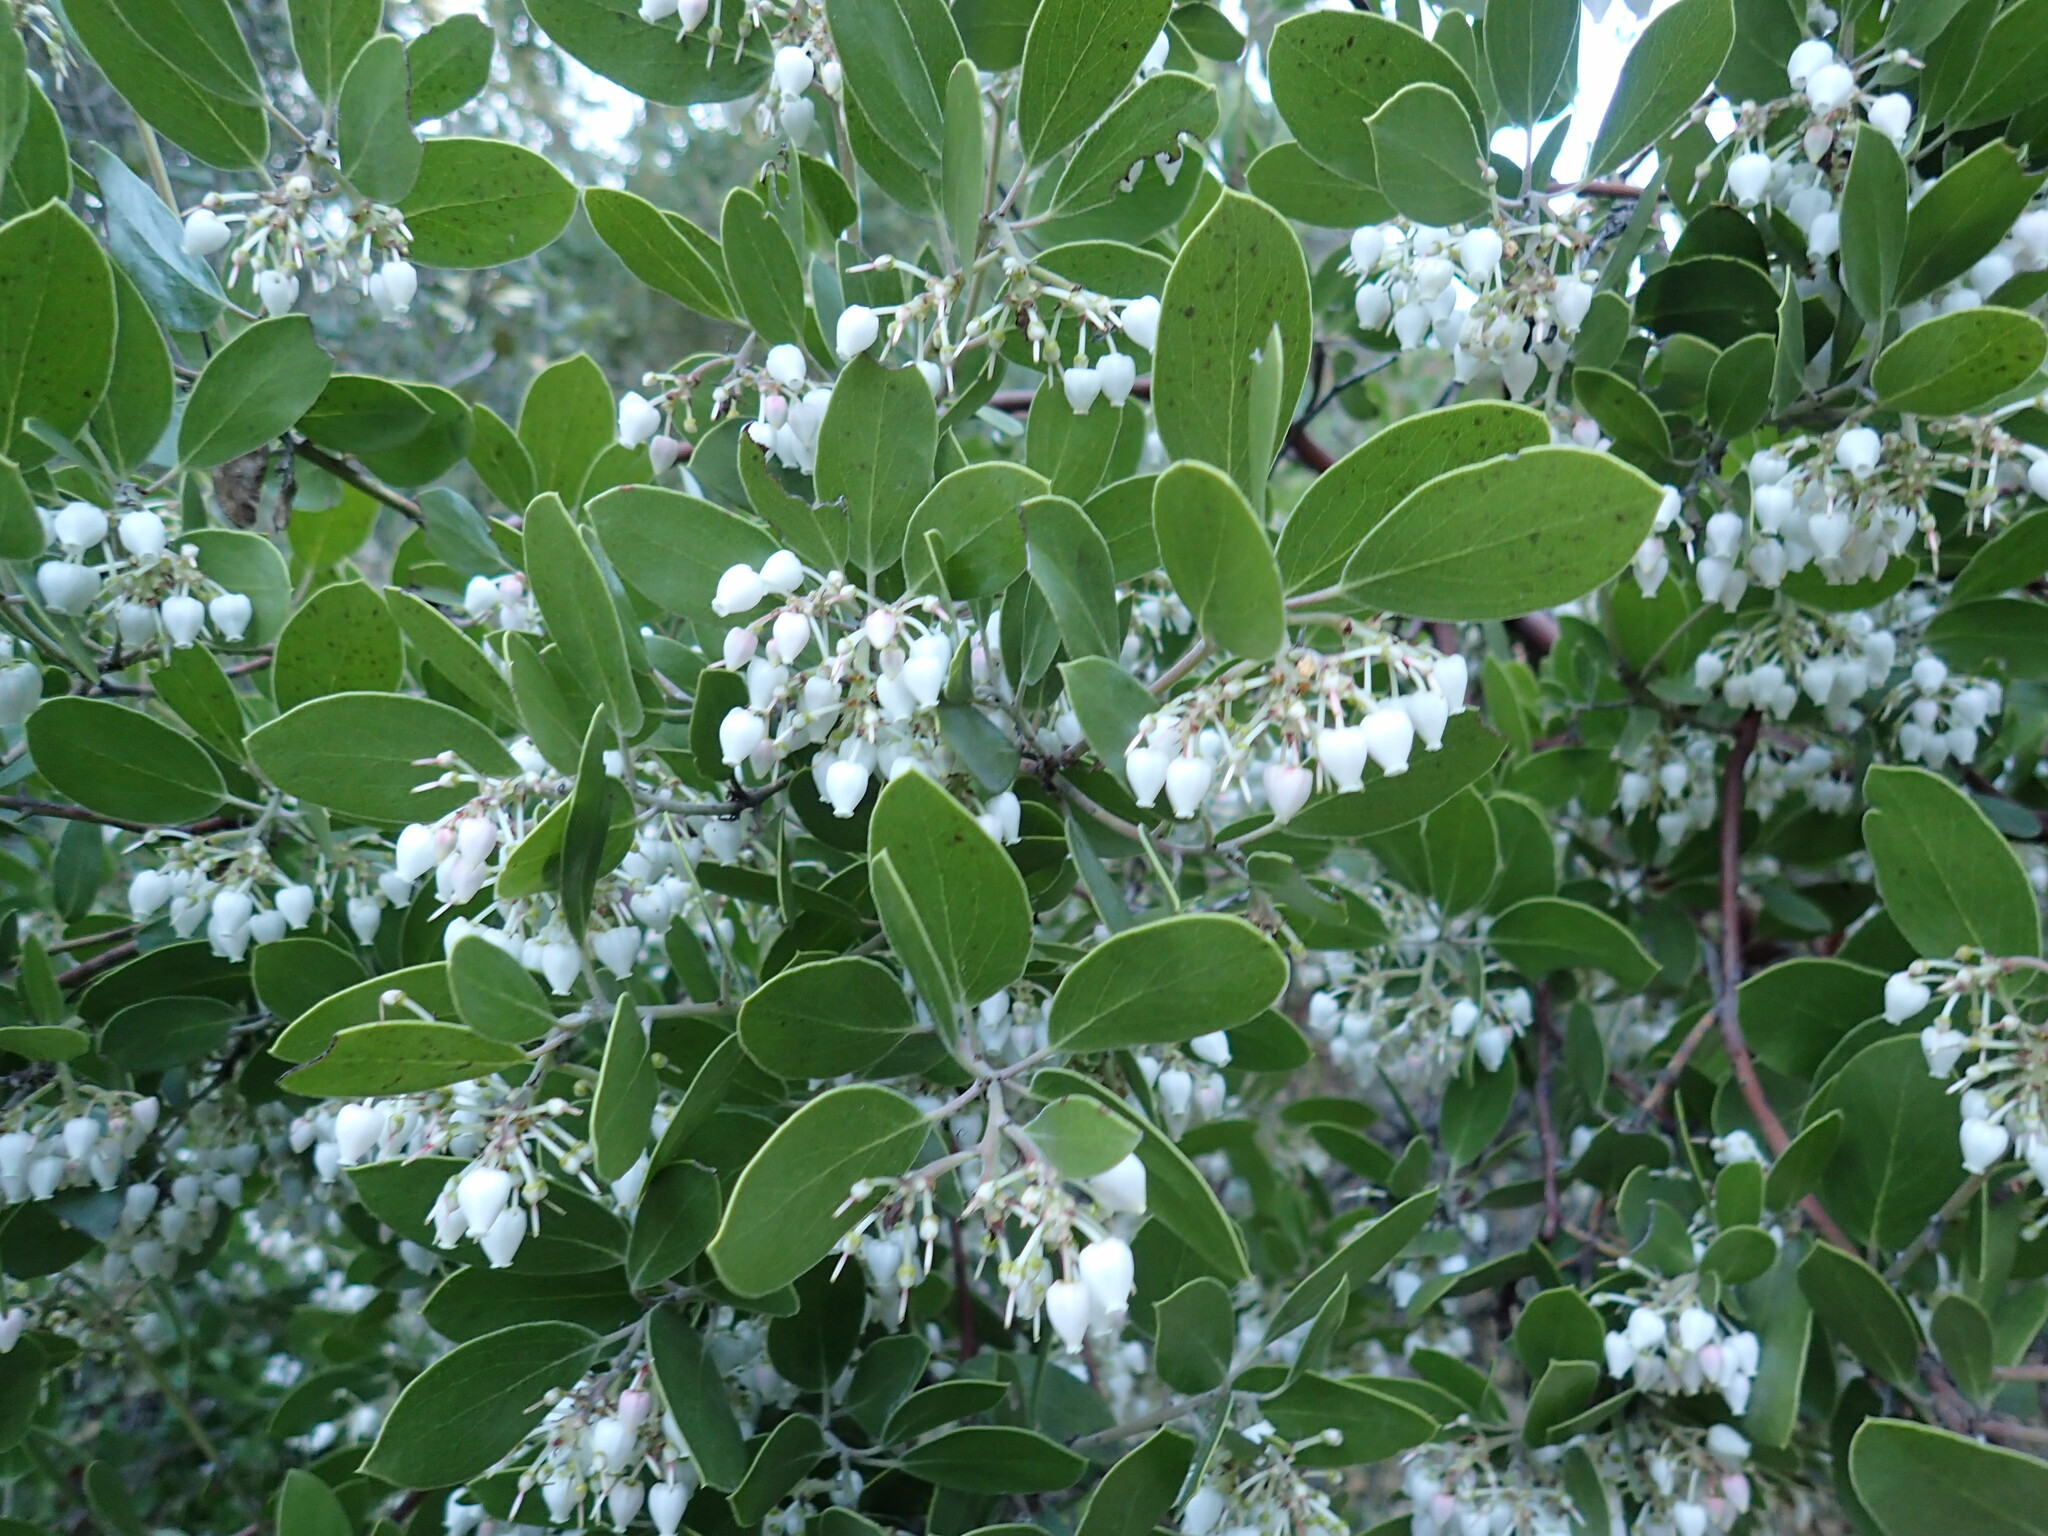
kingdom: Plantae
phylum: Tracheophyta
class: Magnoliopsida
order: Ericales
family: Ericaceae
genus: Arctostaphylos
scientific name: Arctostaphylos manzanita
